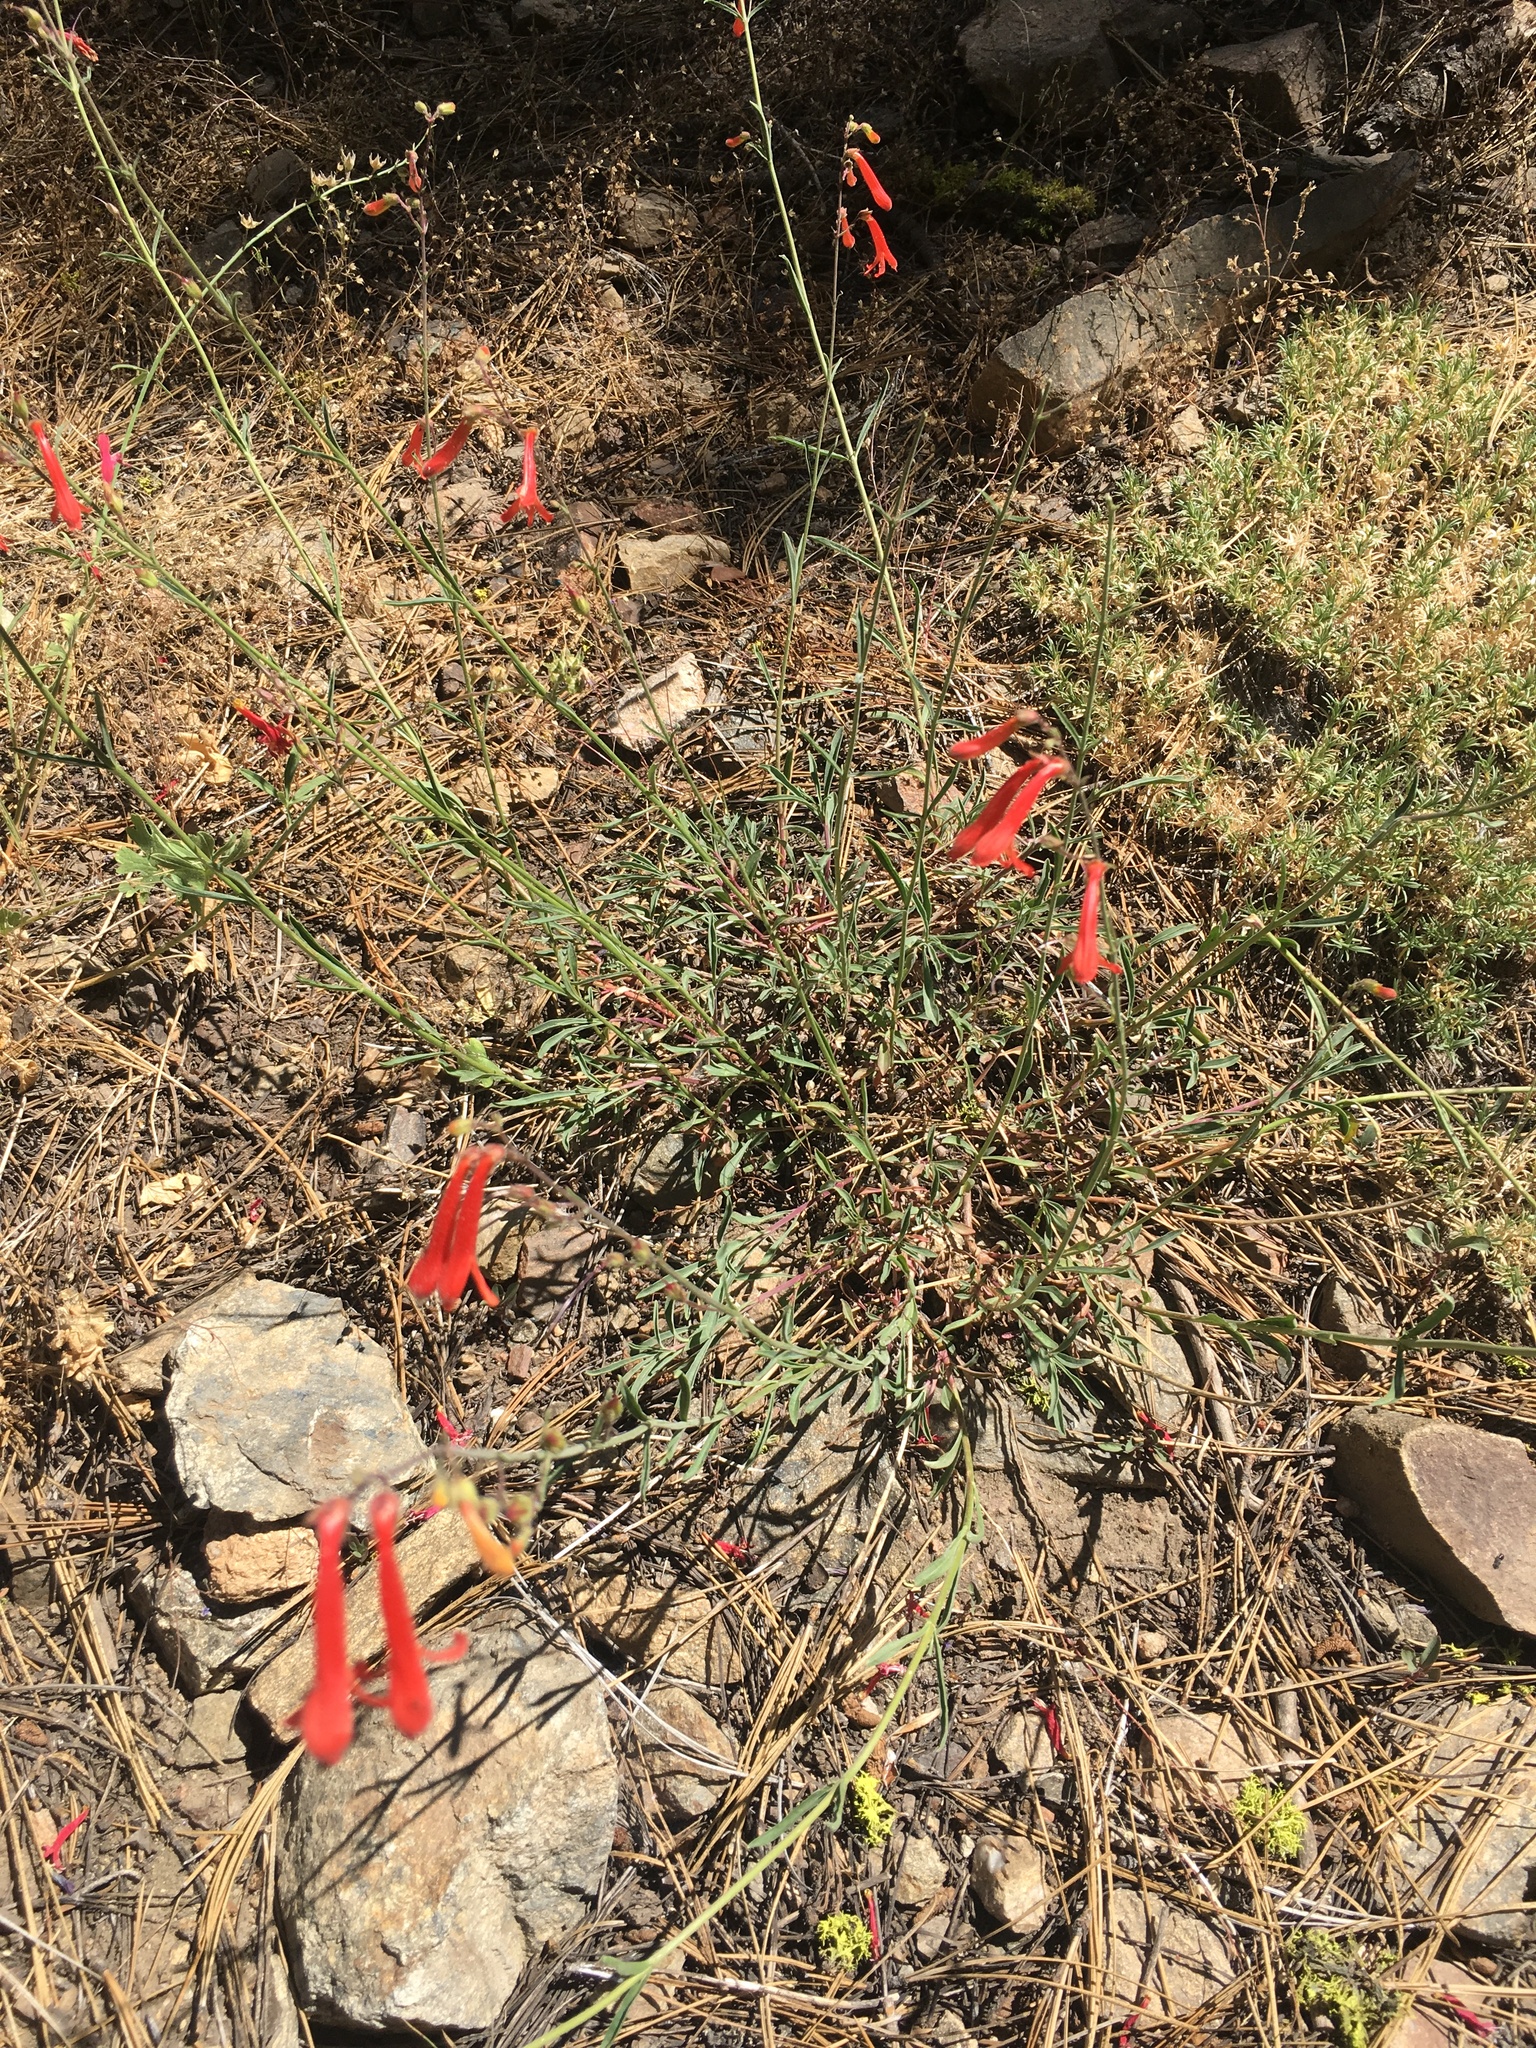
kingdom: Plantae
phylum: Tracheophyta
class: Magnoliopsida
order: Lamiales
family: Plantaginaceae
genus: Penstemon
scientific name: Penstemon rostriflorus
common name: Bridges's penstemon
